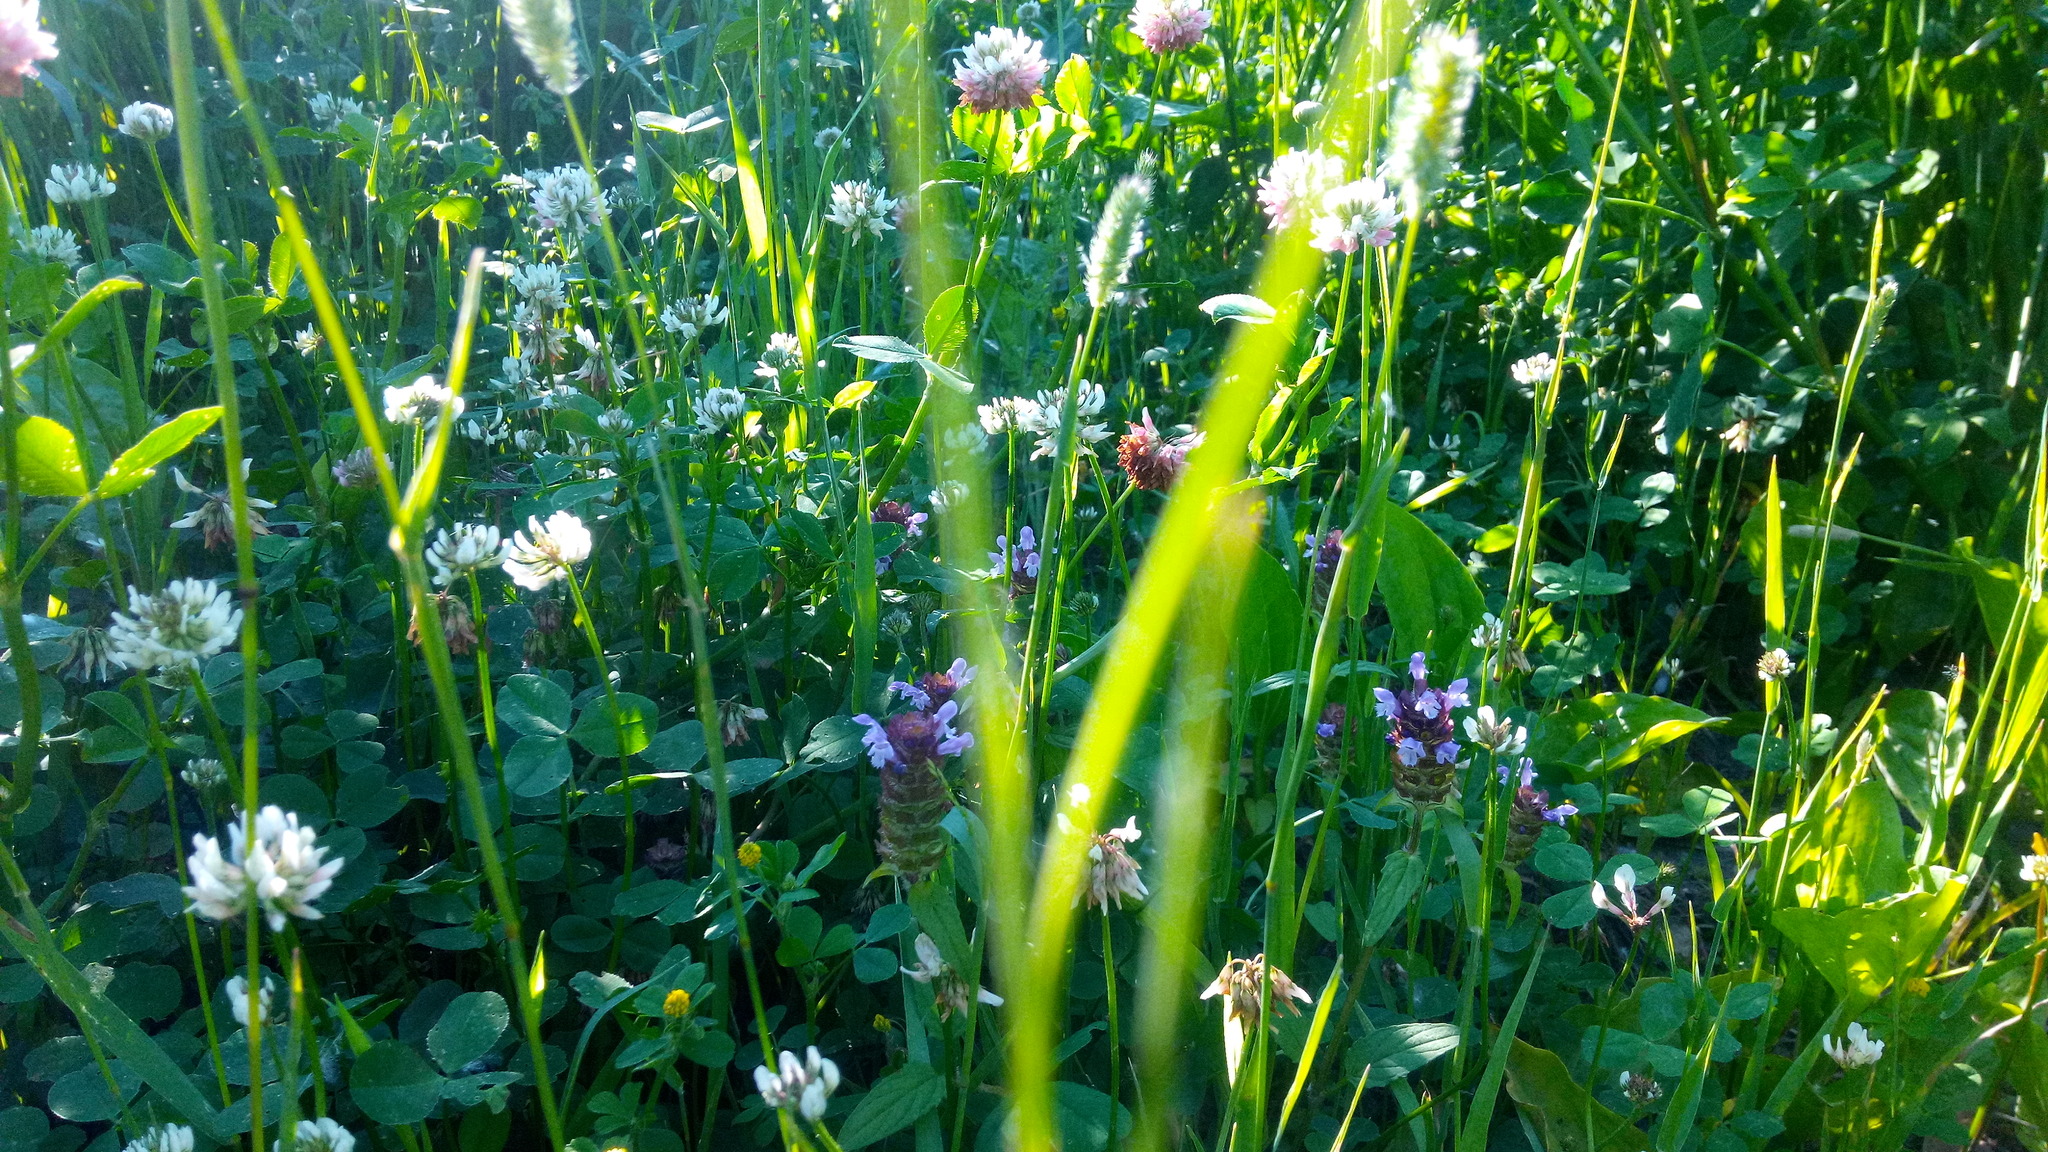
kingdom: Plantae
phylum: Tracheophyta
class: Magnoliopsida
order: Lamiales
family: Lamiaceae
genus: Prunella
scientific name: Prunella vulgaris
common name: Heal-all
